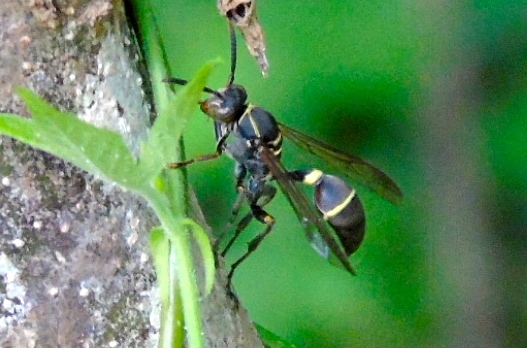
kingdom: Animalia
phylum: Arthropoda
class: Insecta
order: Hymenoptera
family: Vespidae
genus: Mischocyttarus
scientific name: Mischocyttarus
